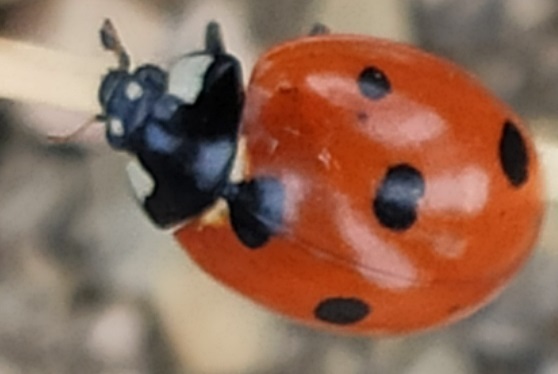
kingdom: Animalia
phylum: Arthropoda
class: Insecta
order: Coleoptera
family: Coccinellidae
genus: Coccinella
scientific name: Coccinella septempunctata
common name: Sevenspotted lady beetle
